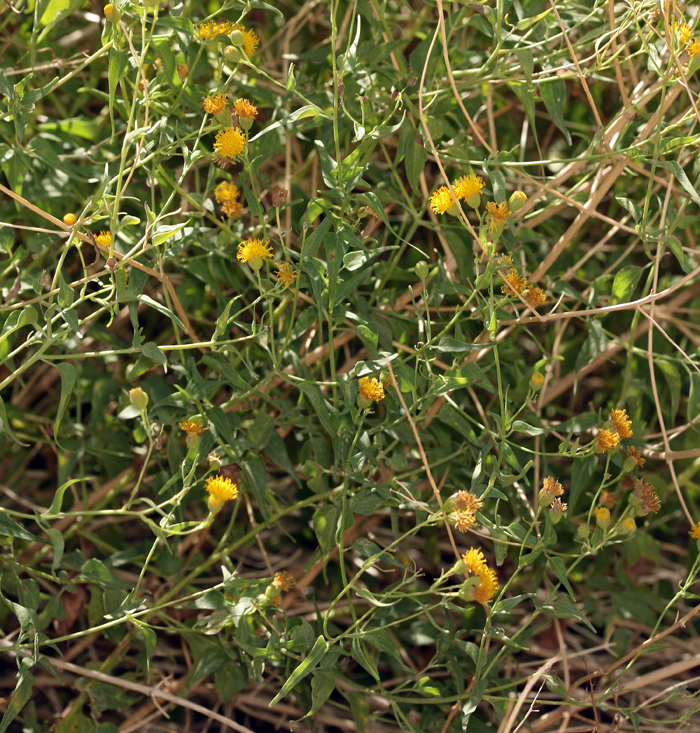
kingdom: Plantae
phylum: Tracheophyta
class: Magnoliopsida
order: Asterales
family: Asteraceae
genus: Pericome
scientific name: Pericome caudata
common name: Taperleaf
